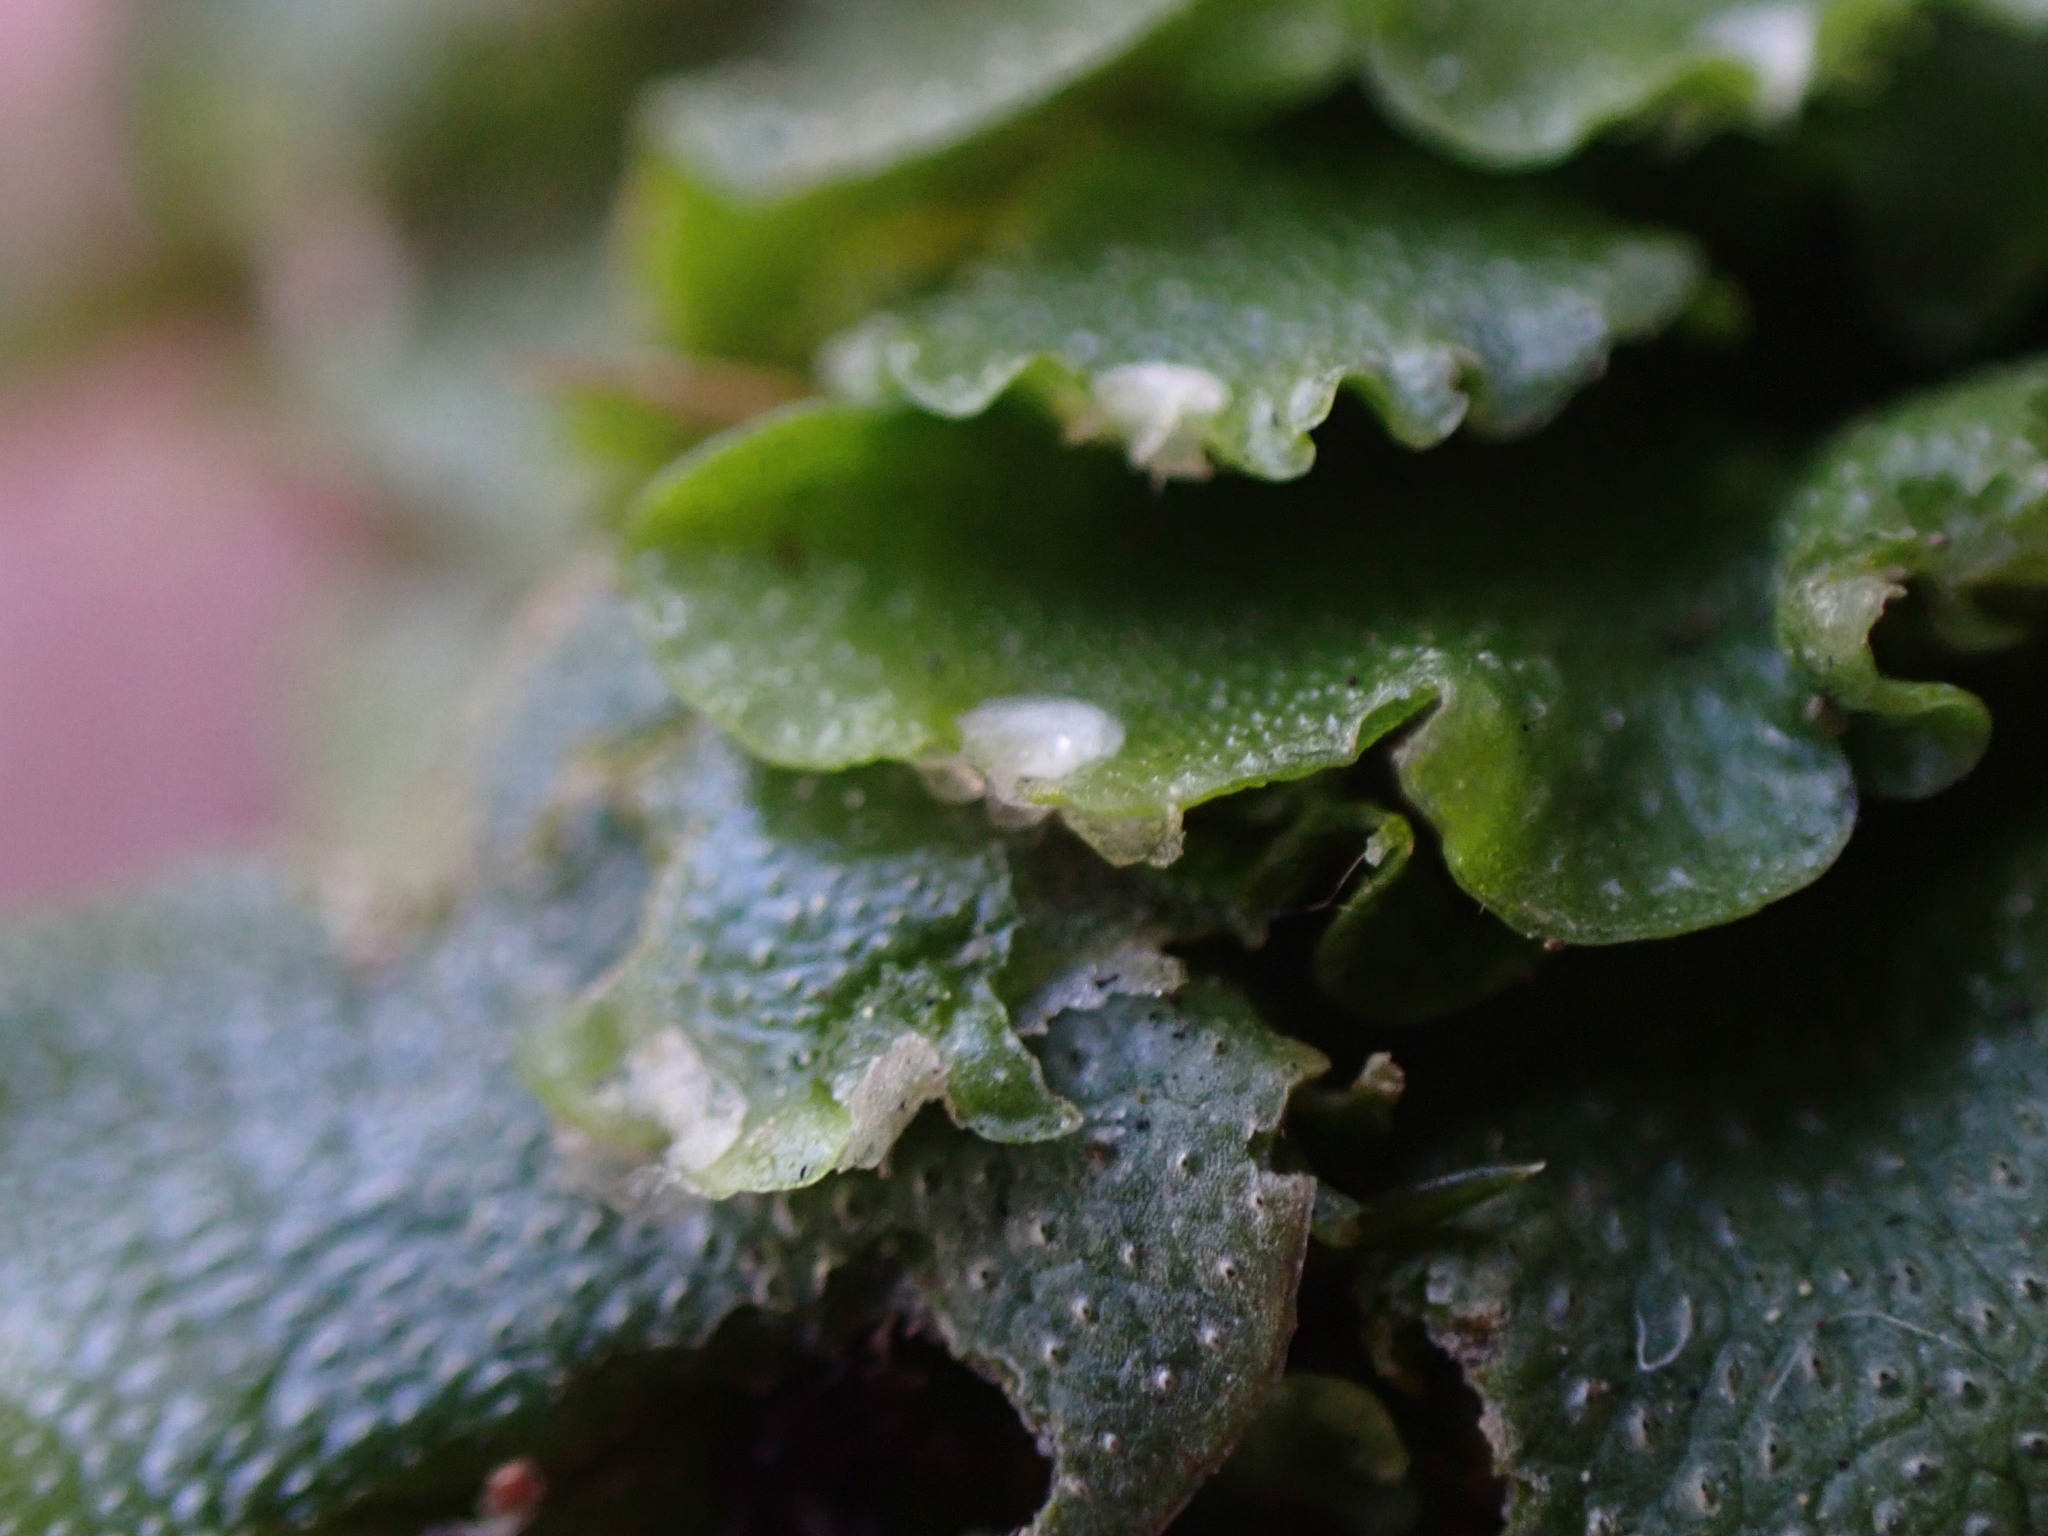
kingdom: Plantae
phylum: Marchantiophyta
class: Marchantiopsida
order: Lunulariales
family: Lunulariaceae
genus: Lunularia
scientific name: Lunularia cruciata
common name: Crescent-cup liverwort
